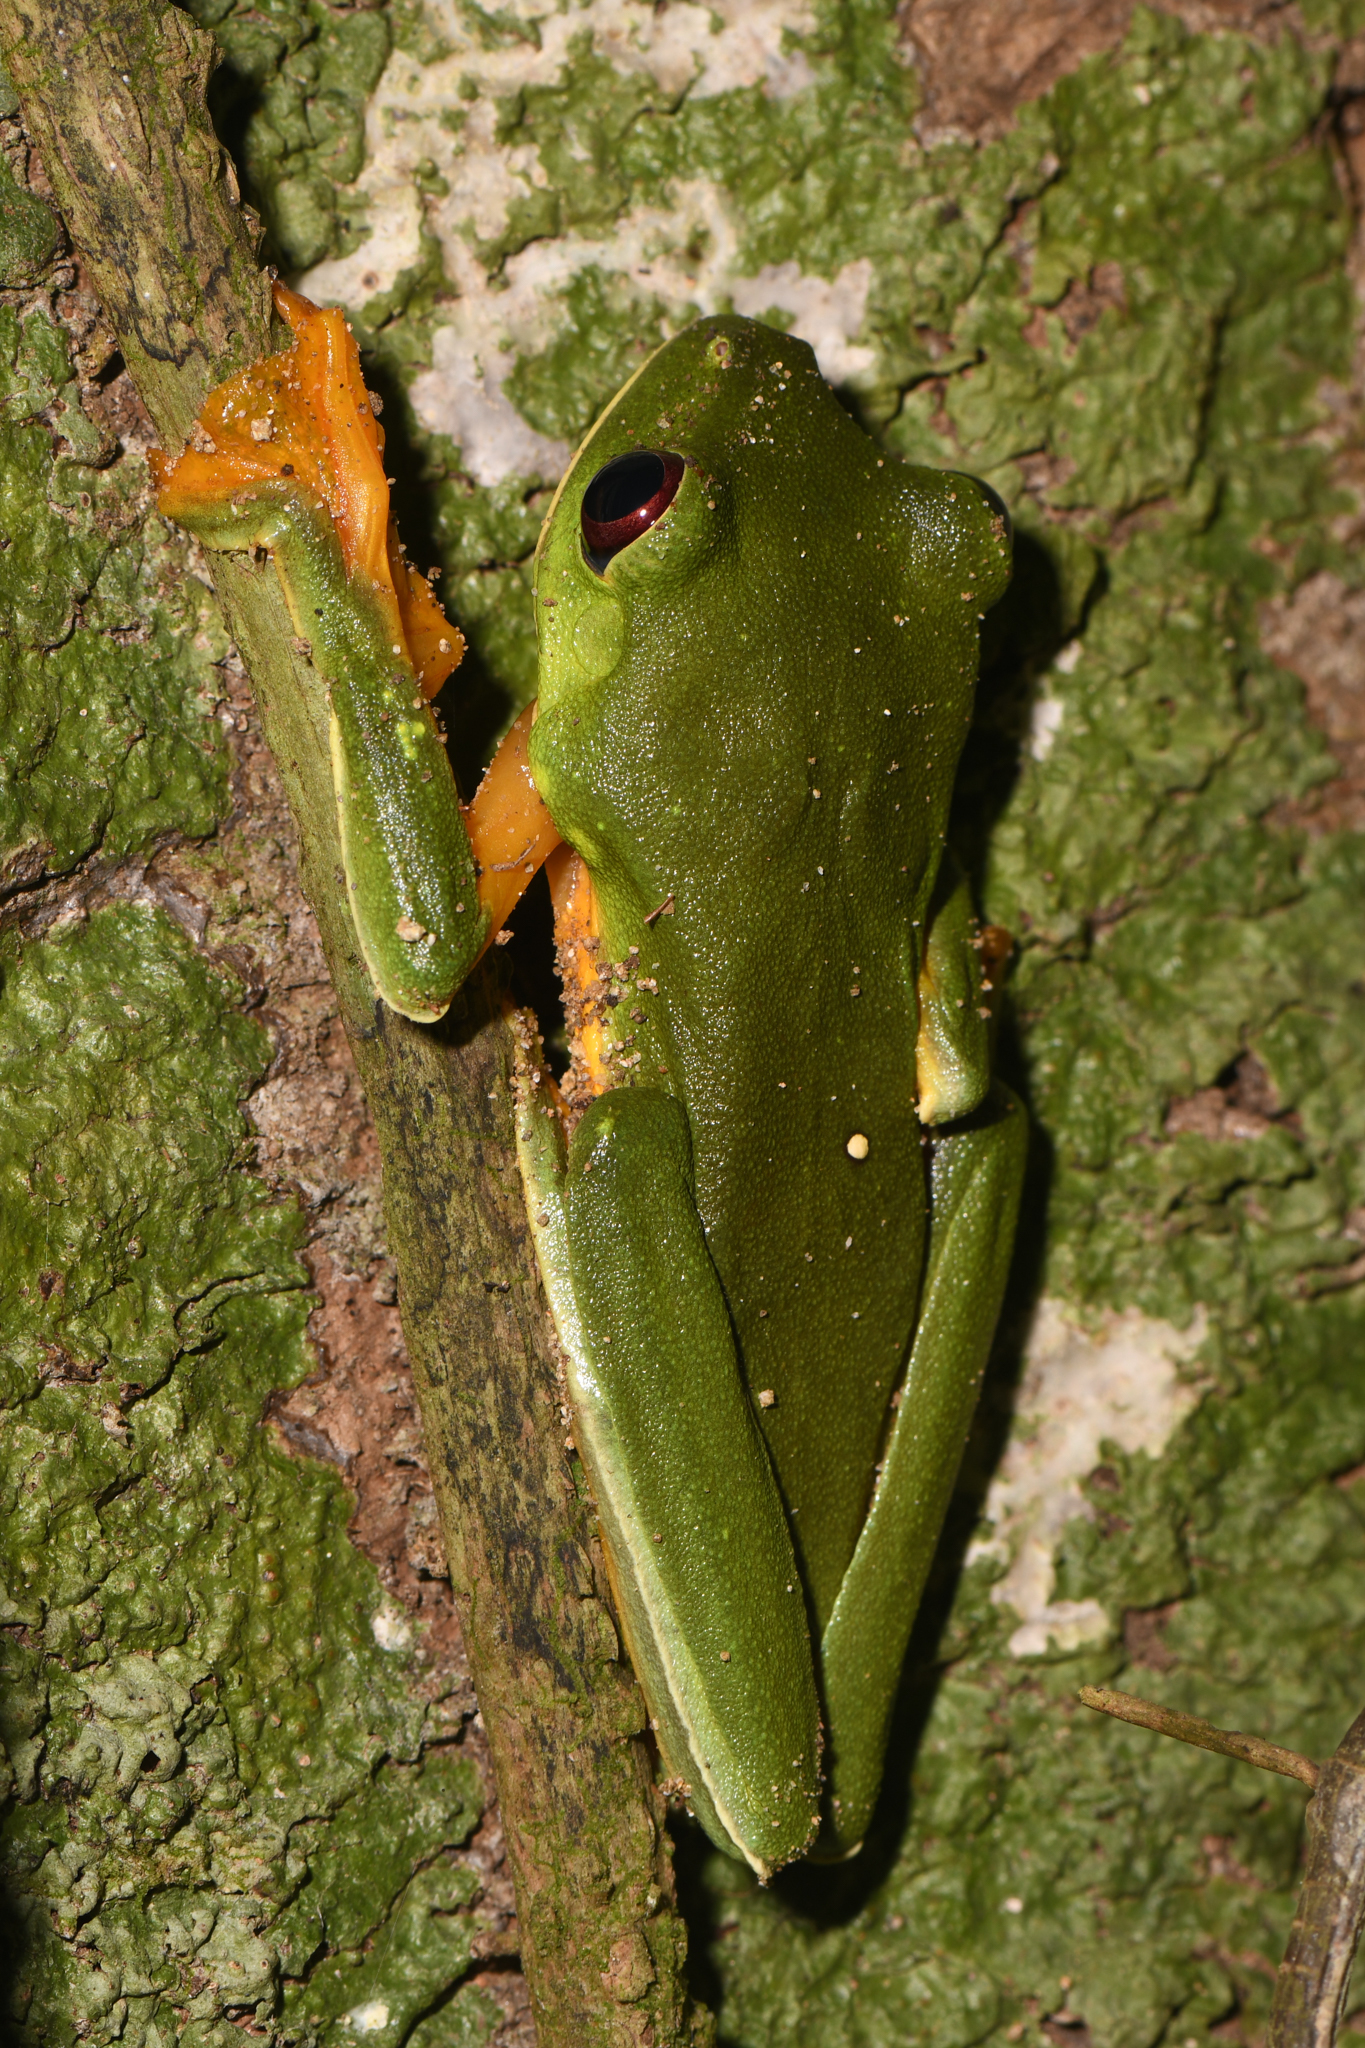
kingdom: Animalia
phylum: Chordata
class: Amphibia
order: Anura
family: Phyllomedusidae
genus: Agalychnis
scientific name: Agalychnis spurrelli
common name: Gliding leaf frog
